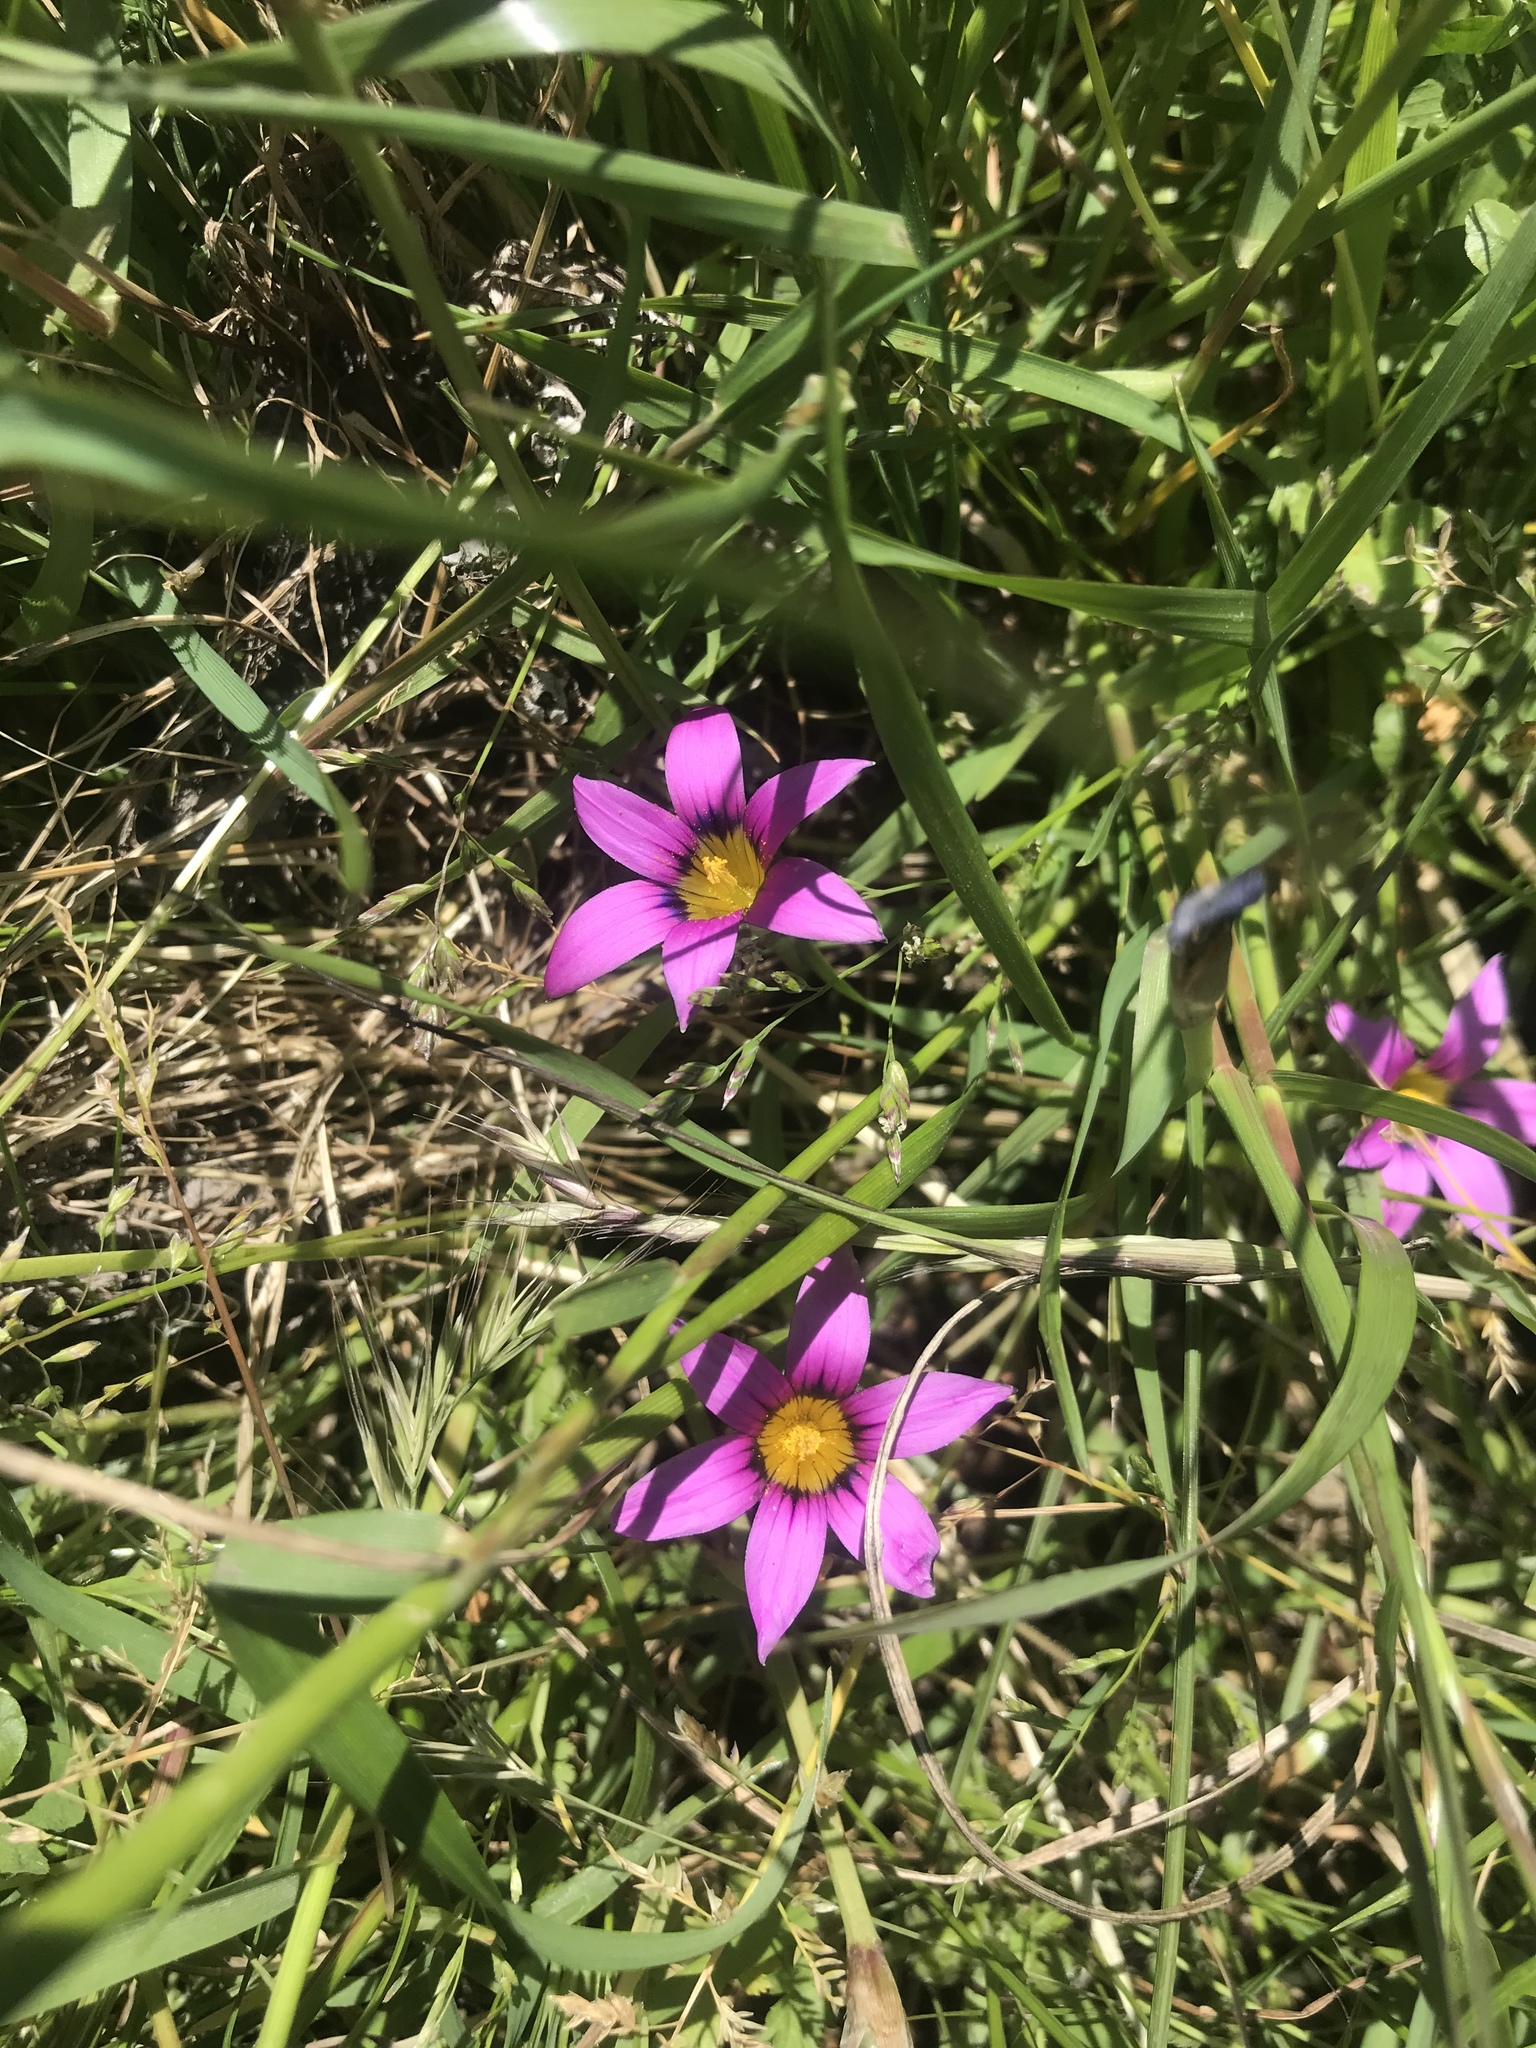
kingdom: Plantae
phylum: Tracheophyta
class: Liliopsida
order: Asparagales
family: Iridaceae
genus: Romulea
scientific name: Romulea rosea
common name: Oniongrass
